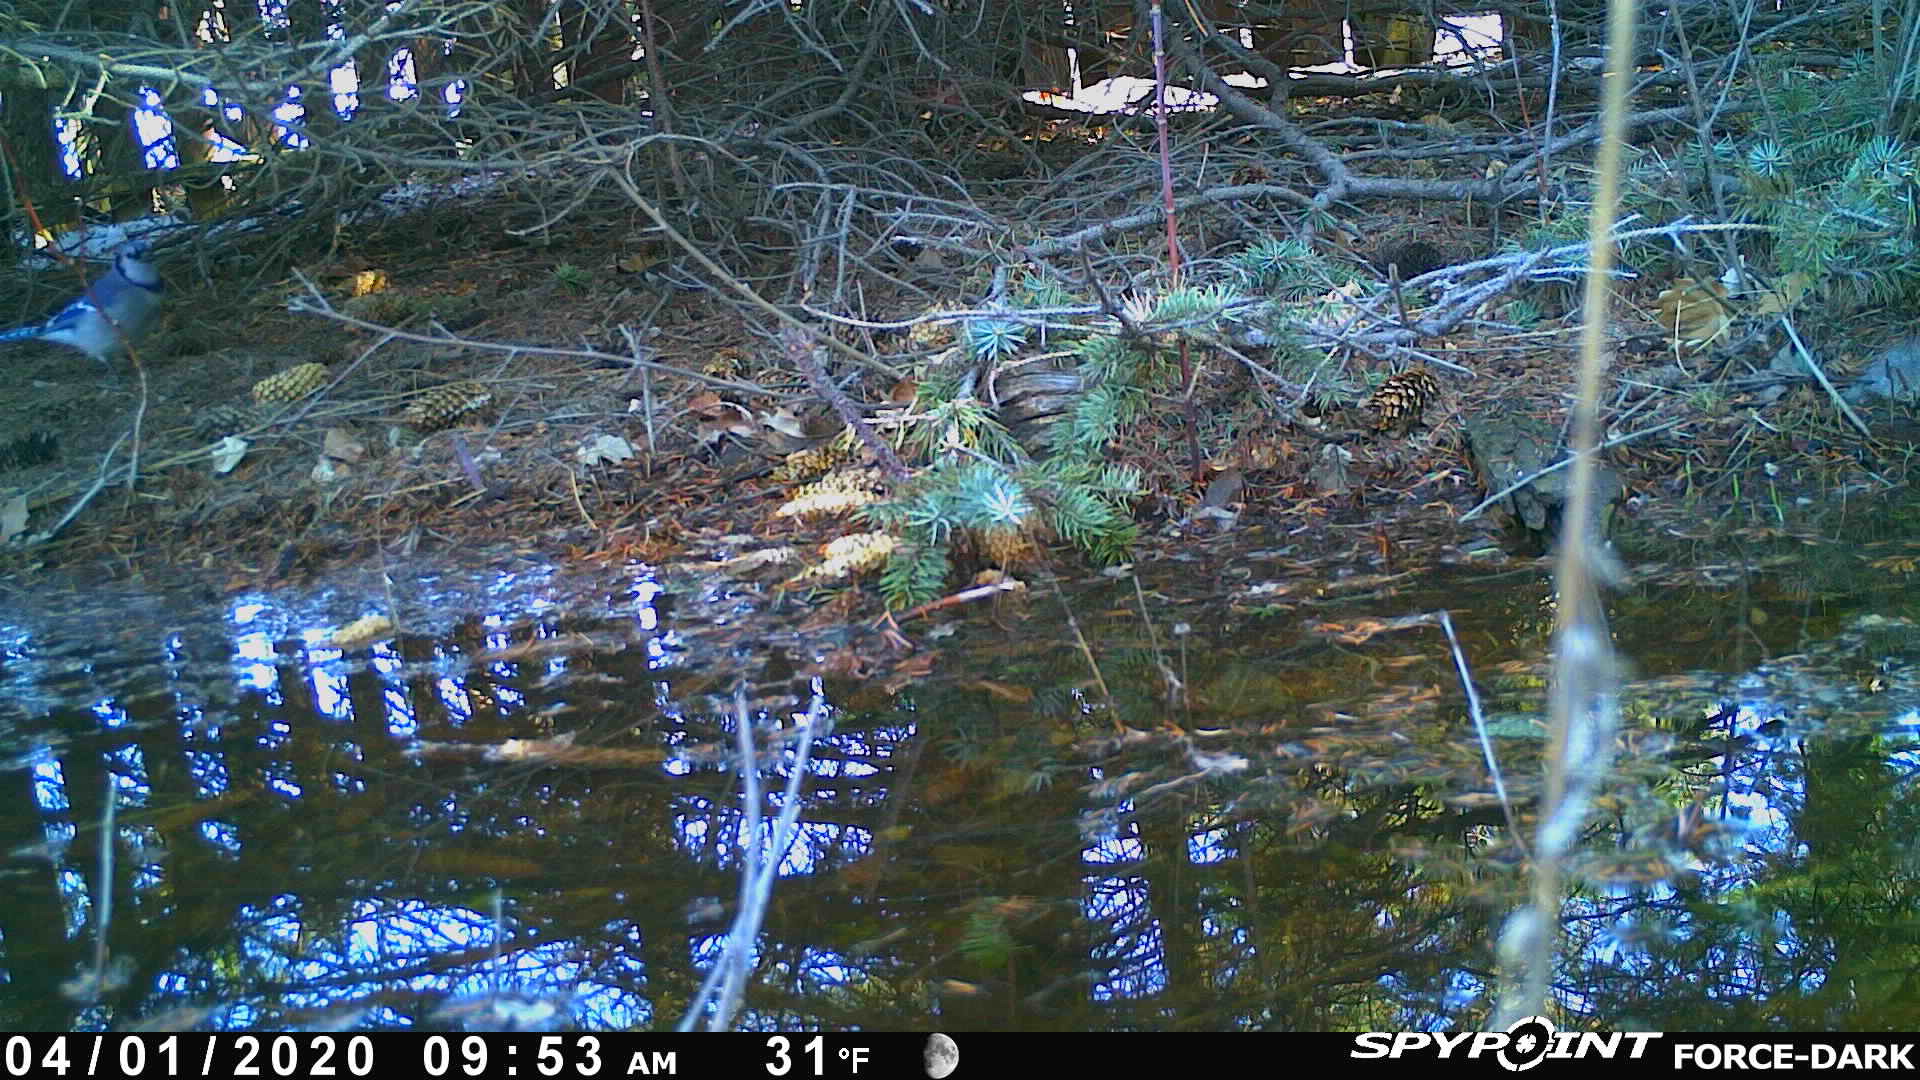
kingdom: Animalia
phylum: Chordata
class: Aves
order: Passeriformes
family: Corvidae
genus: Cyanocitta
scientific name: Cyanocitta cristata
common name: Blue jay
